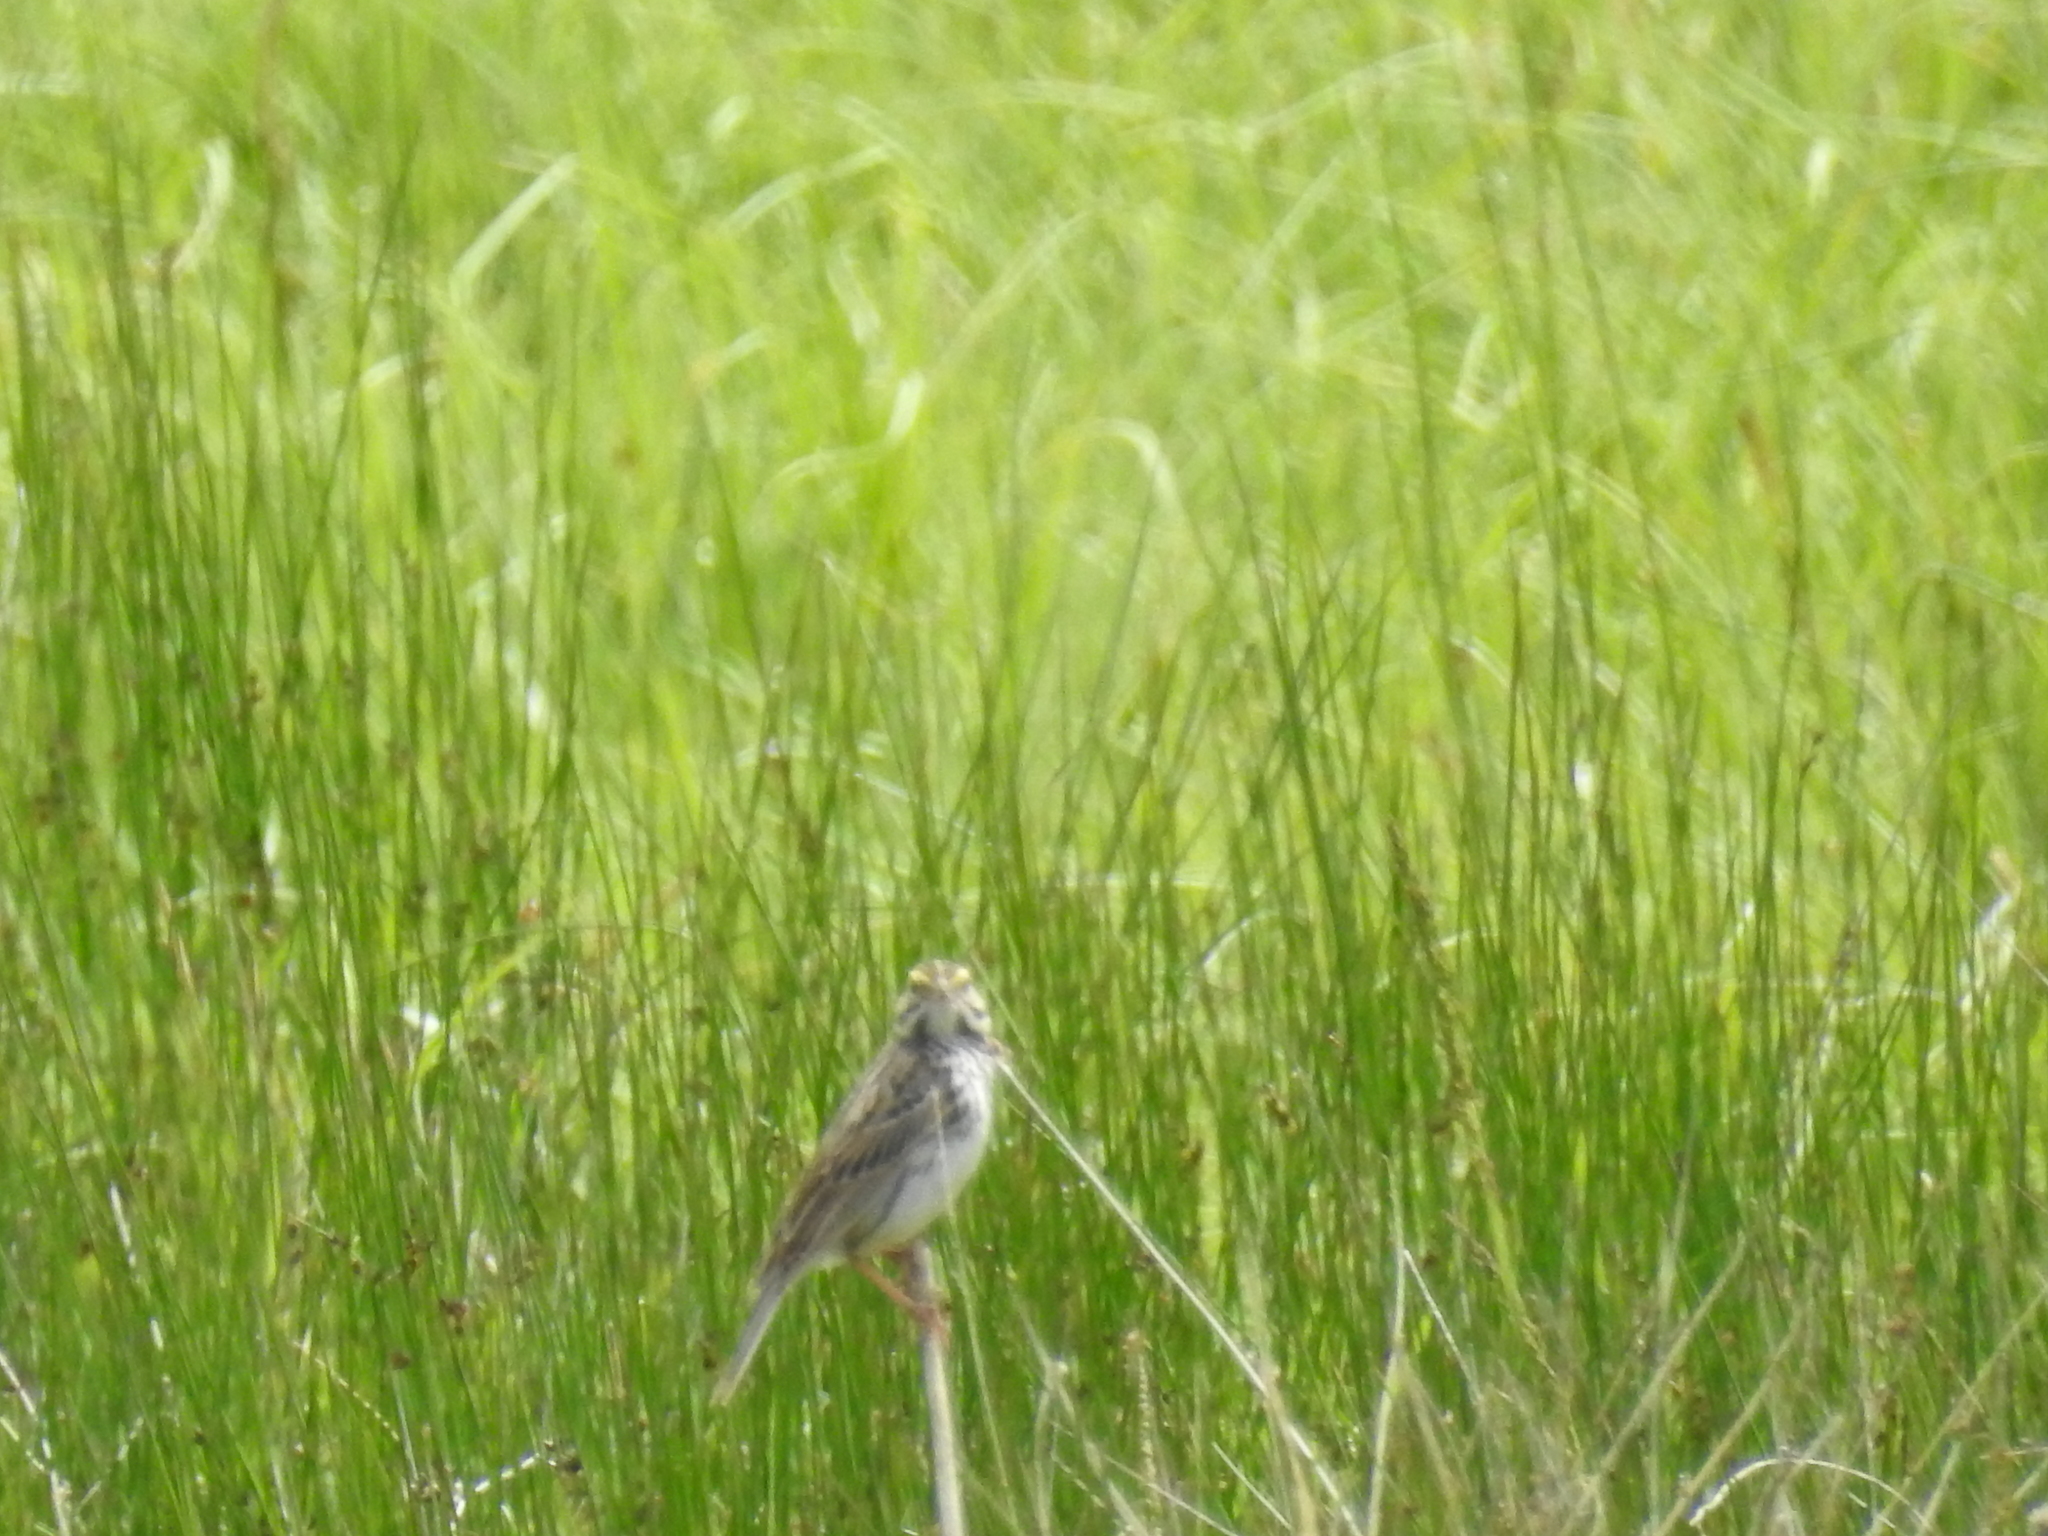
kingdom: Animalia
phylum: Chordata
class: Aves
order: Passeriformes
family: Passerellidae
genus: Passerculus
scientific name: Passerculus sandwichensis
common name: Savannah sparrow
